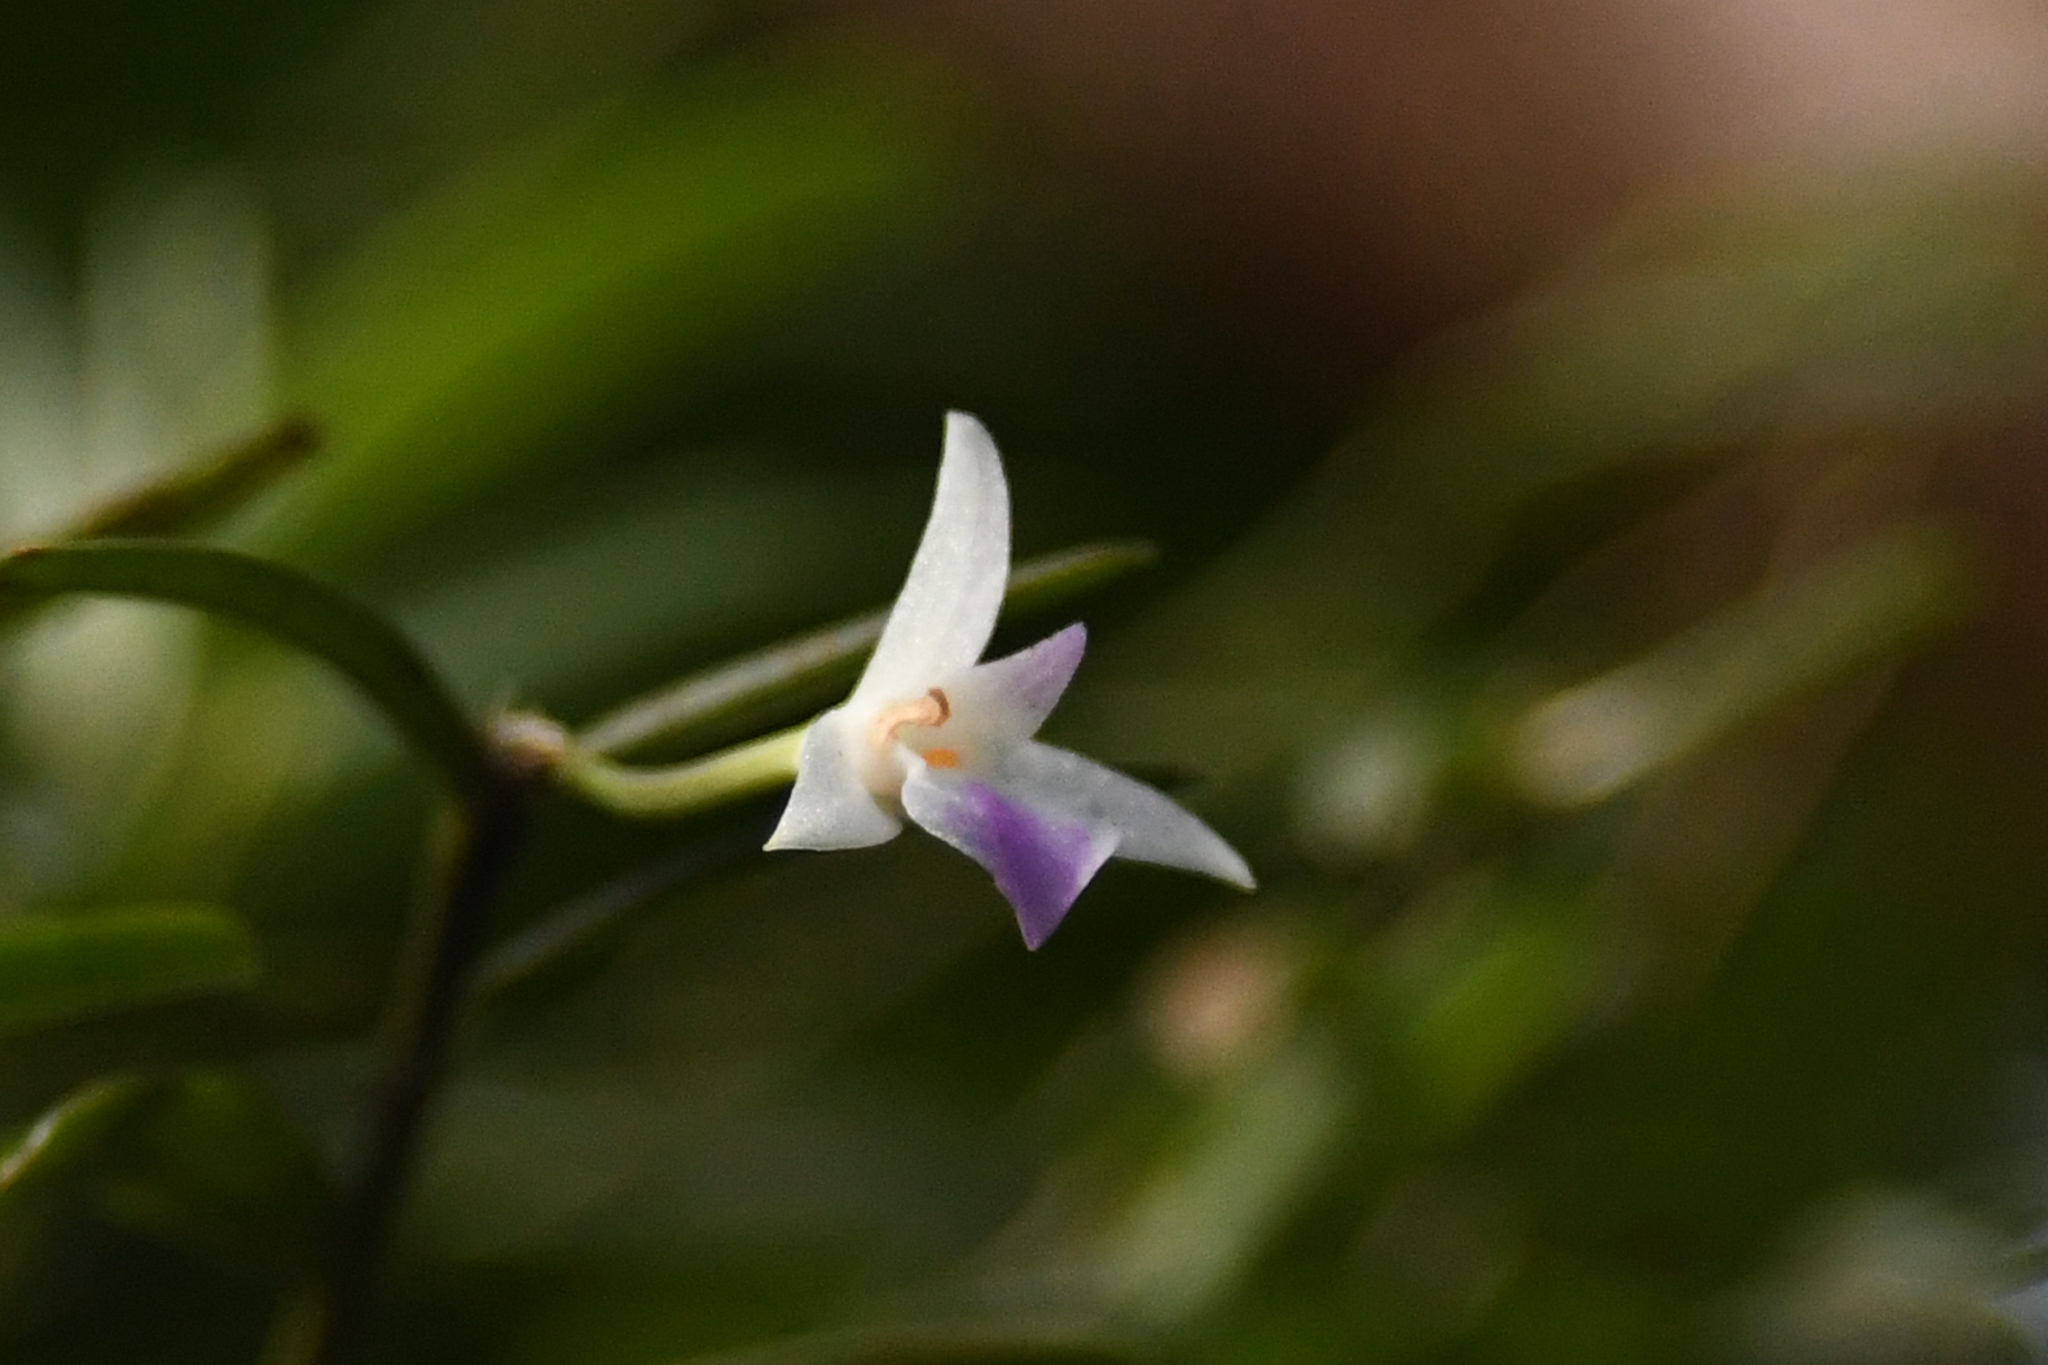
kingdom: Plantae
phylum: Tracheophyta
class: Liliopsida
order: Asparagales
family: Orchidaceae
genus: Acrorchis
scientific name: Acrorchis roseola
